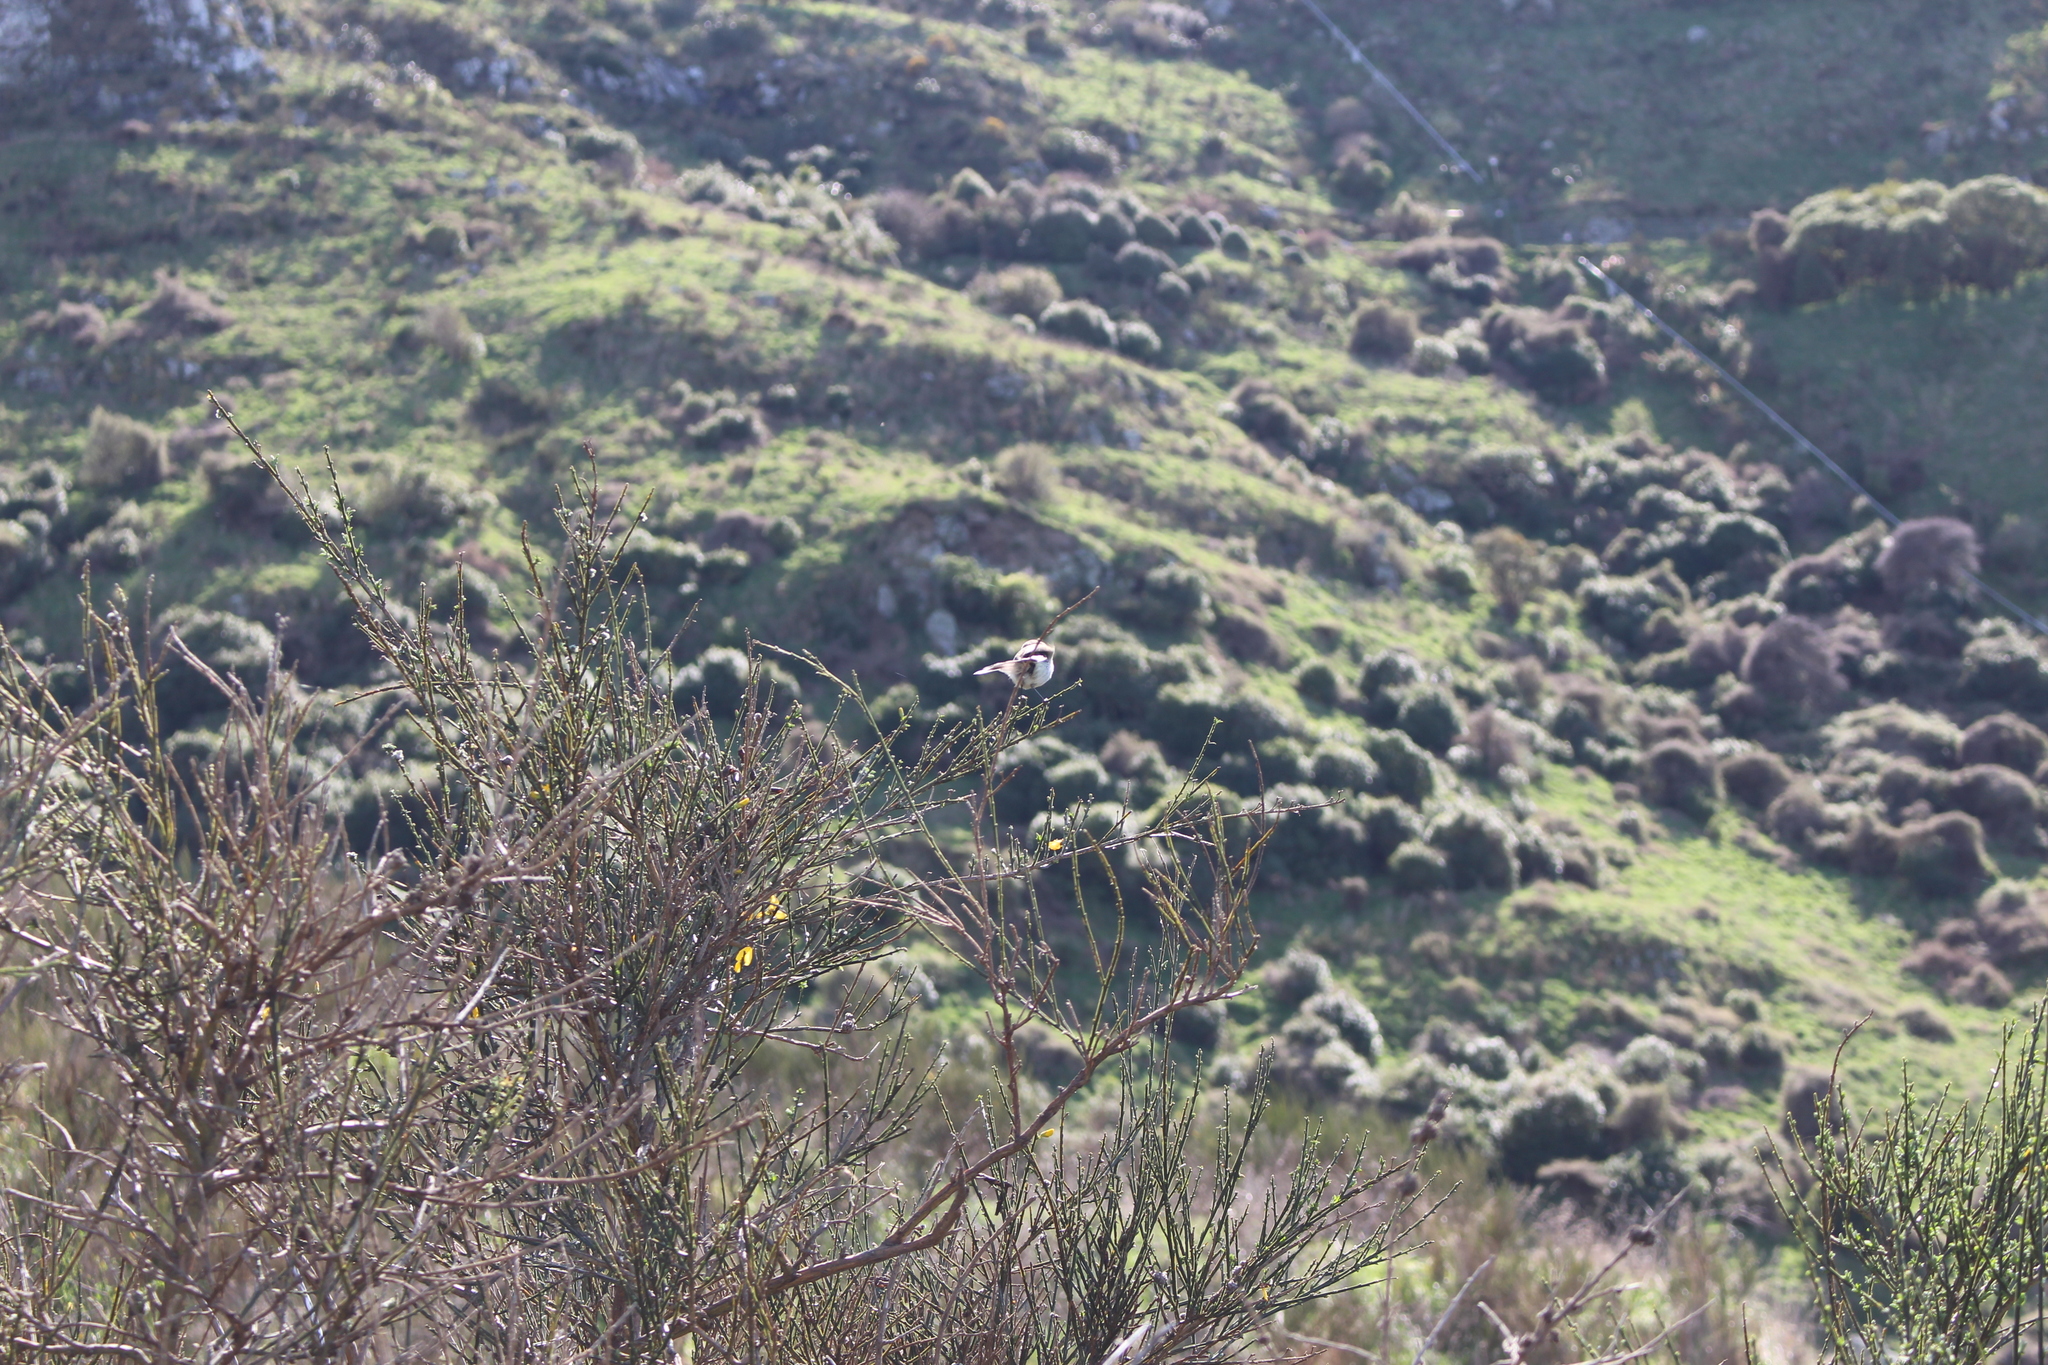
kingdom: Animalia
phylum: Chordata
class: Aves
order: Passeriformes
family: Acanthizidae
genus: Gerygone
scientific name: Gerygone igata
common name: Grey gerygone
